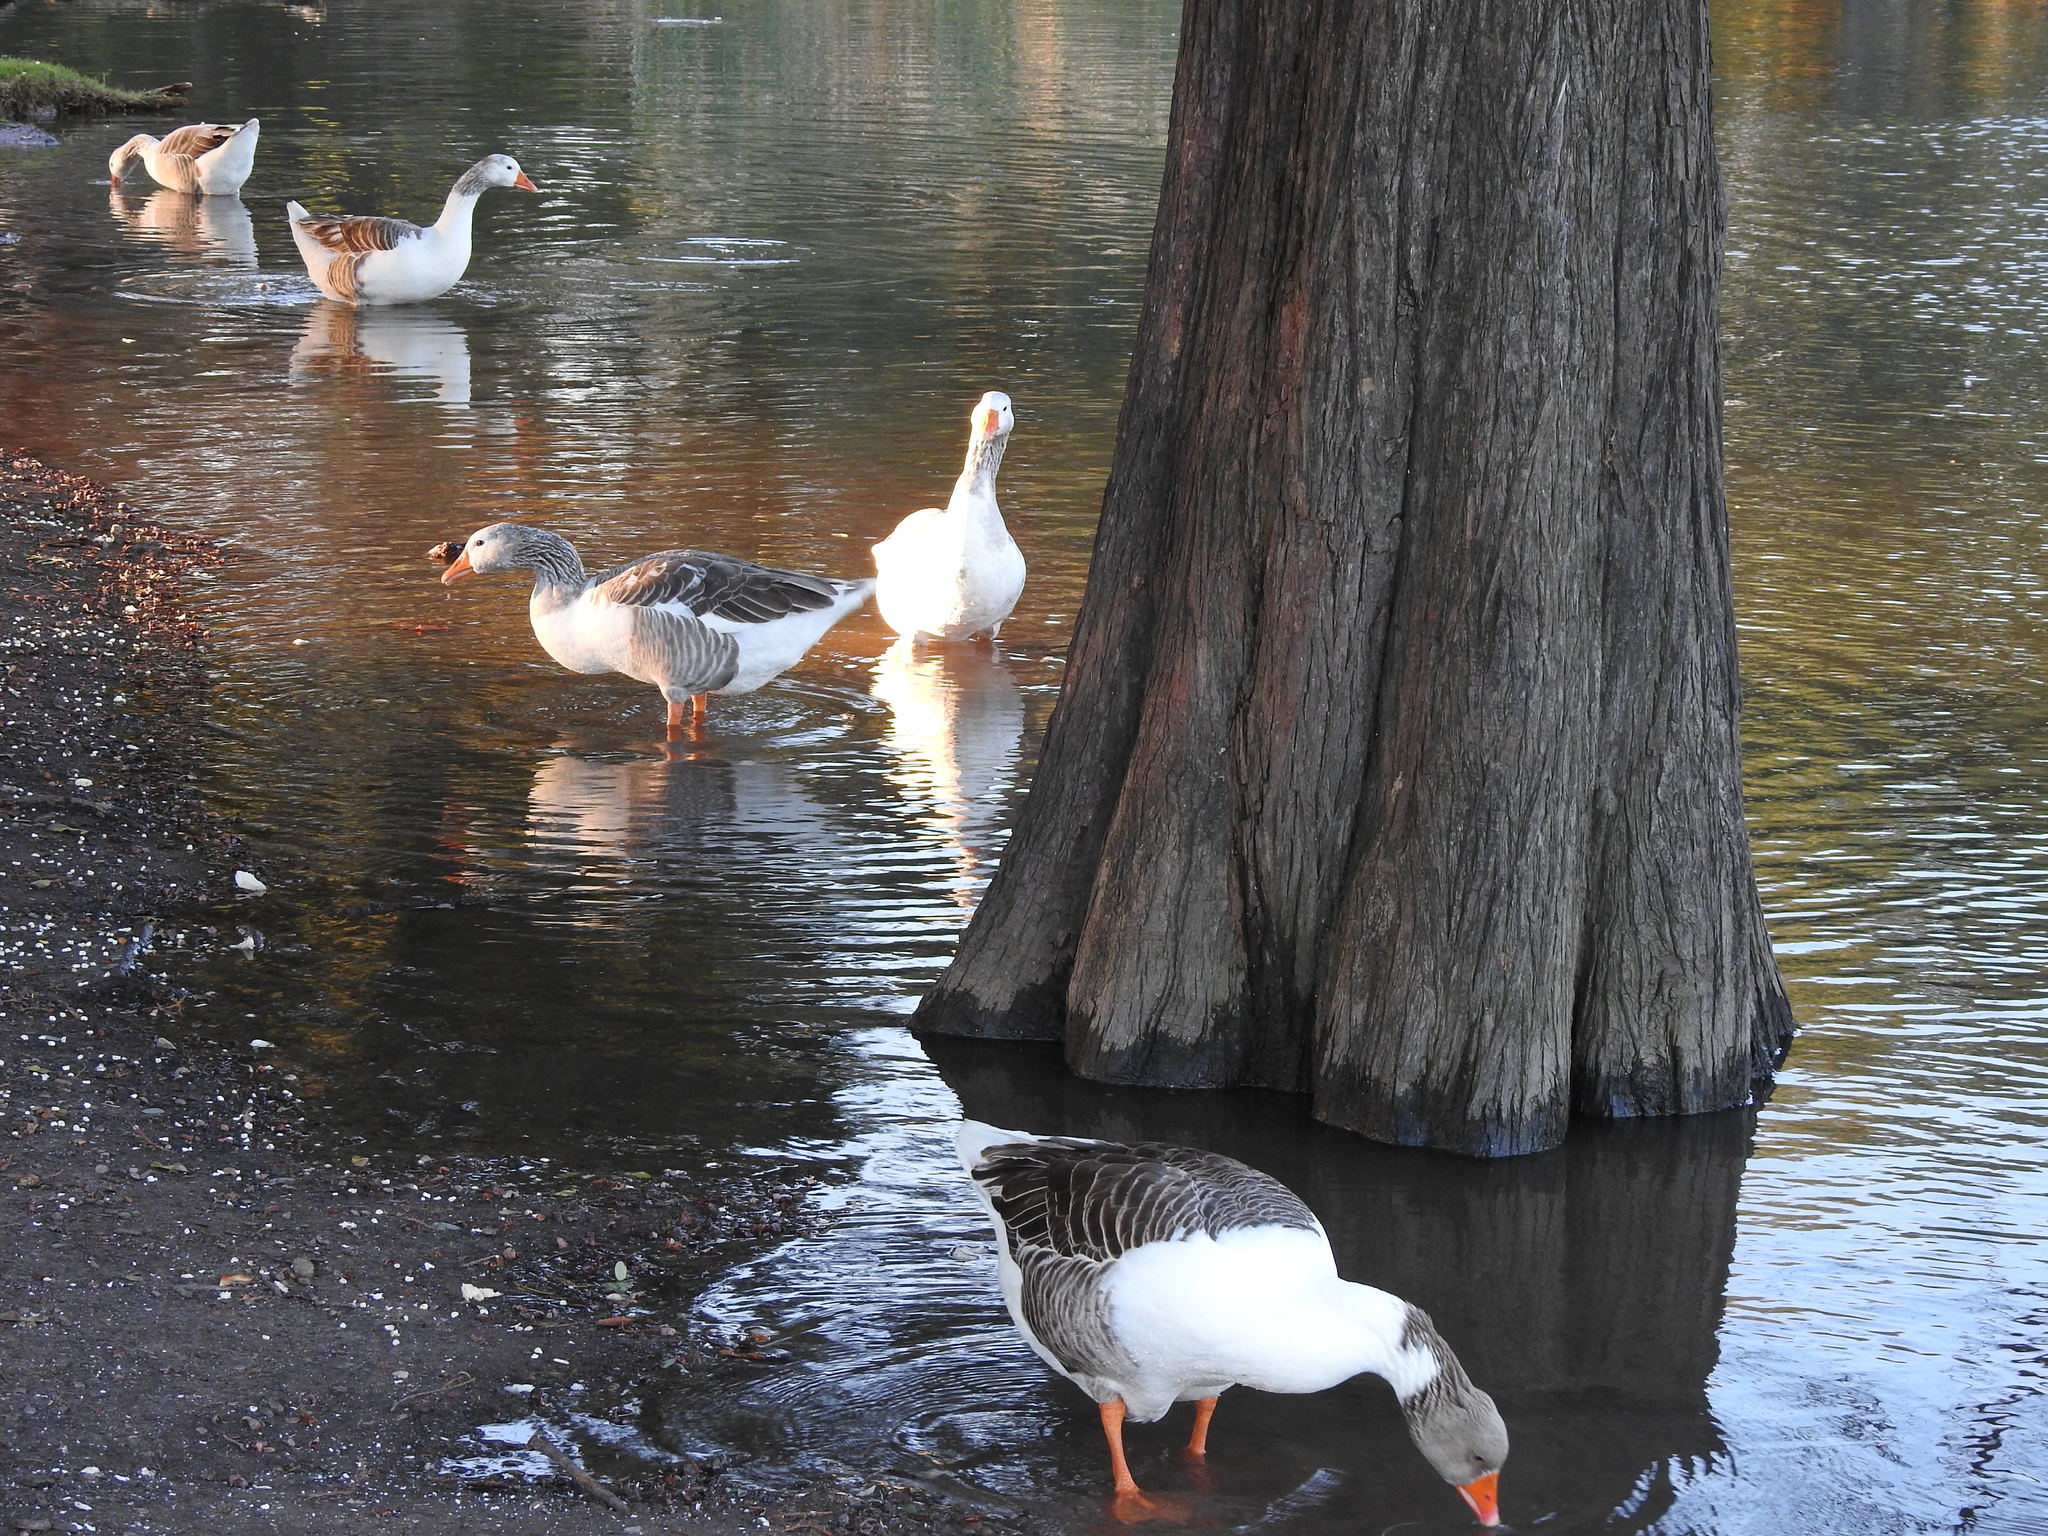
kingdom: Animalia
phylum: Chordata
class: Aves
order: Anseriformes
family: Anatidae
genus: Anser
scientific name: Anser anser
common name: Greylag goose
